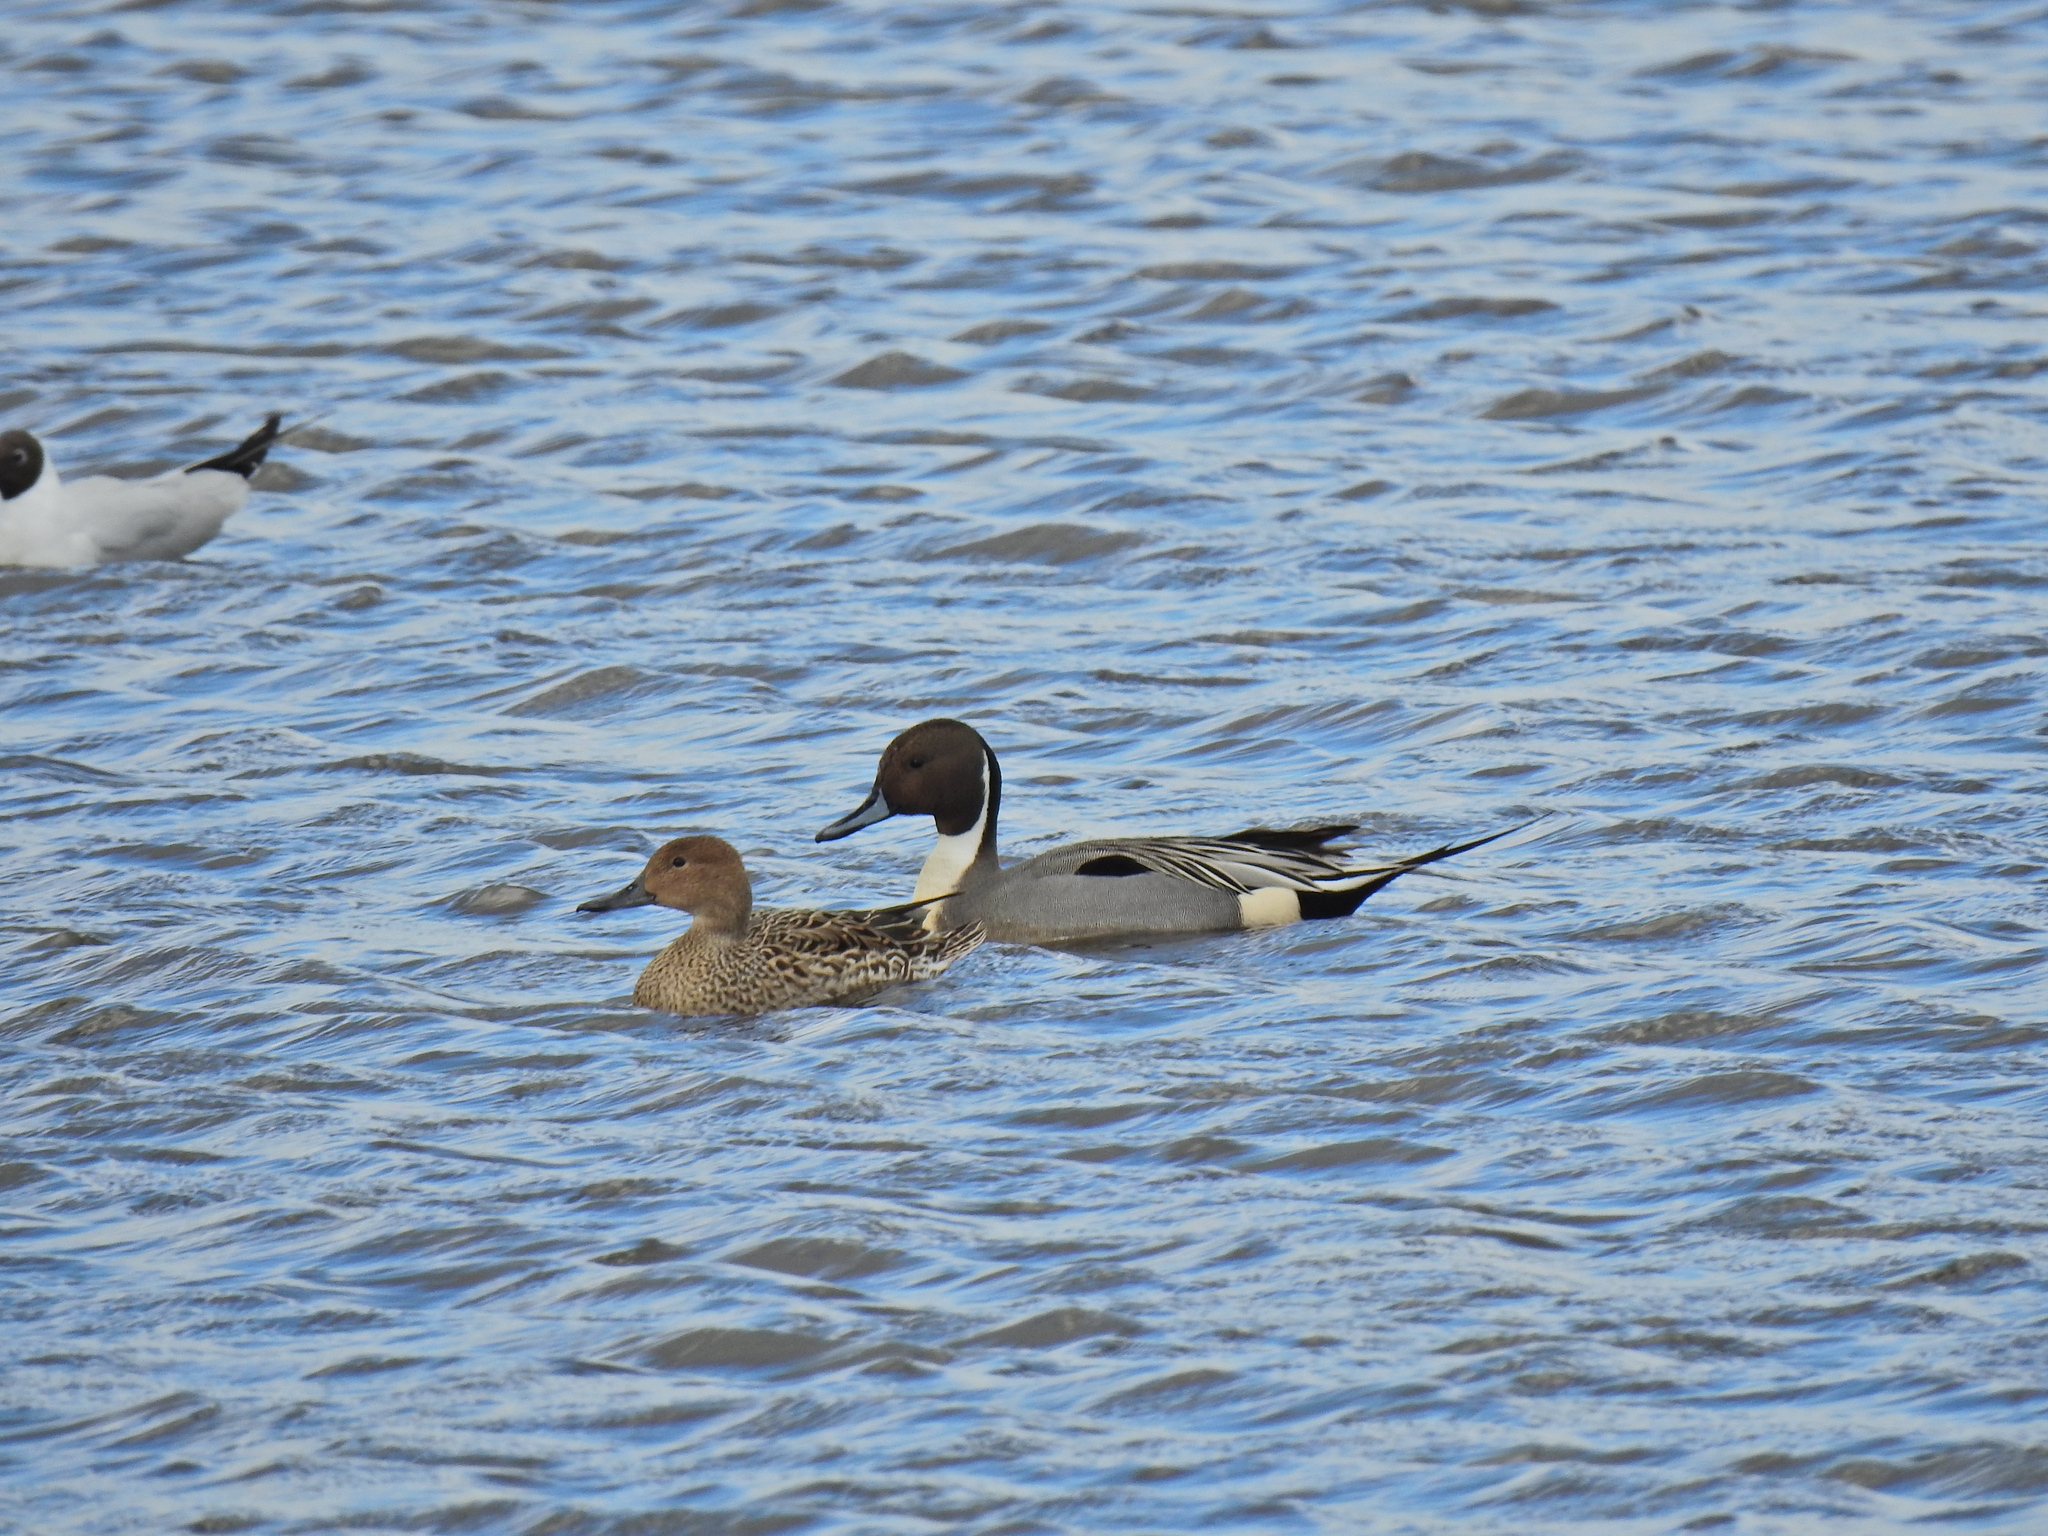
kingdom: Animalia
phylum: Chordata
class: Aves
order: Anseriformes
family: Anatidae
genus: Anas
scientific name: Anas acuta
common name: Northern pintail
